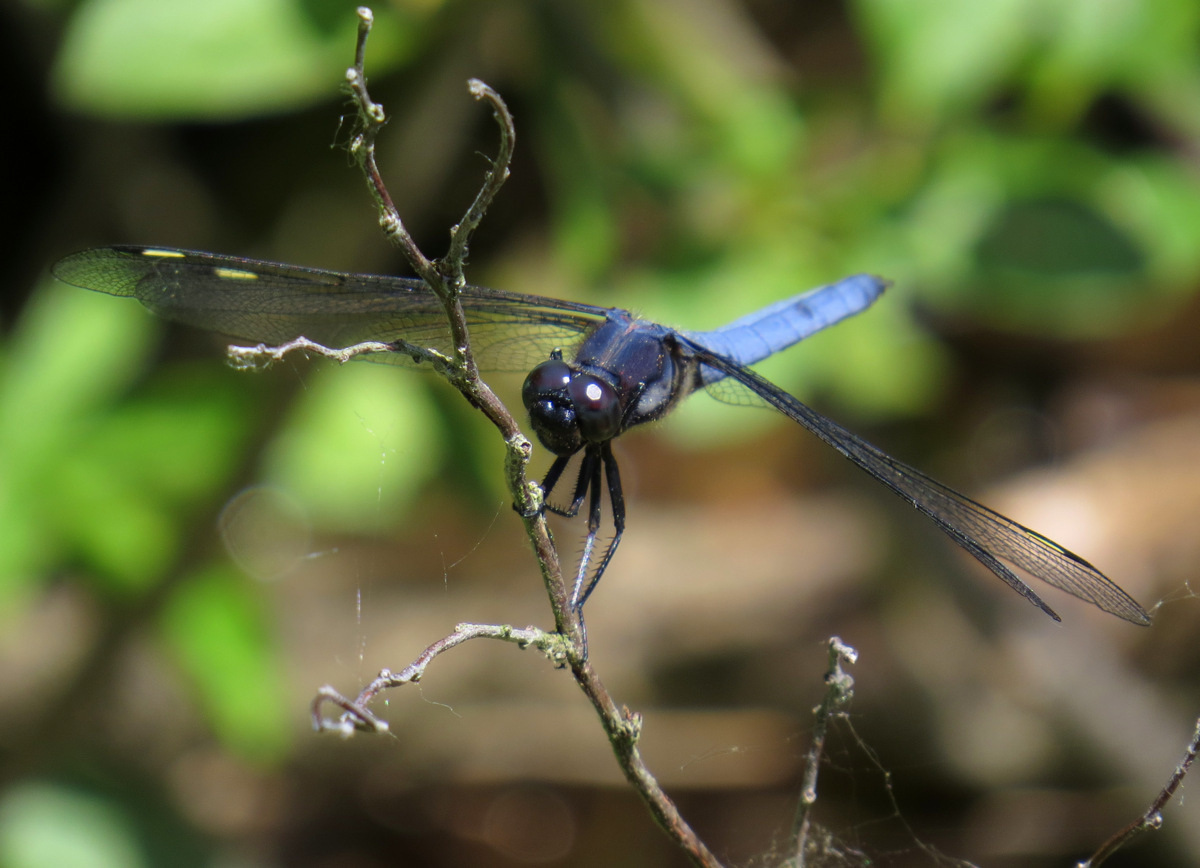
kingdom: Animalia
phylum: Arthropoda
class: Insecta
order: Odonata
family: Libellulidae
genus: Libellula
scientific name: Libellula cyanea
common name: Spangled skimmer
